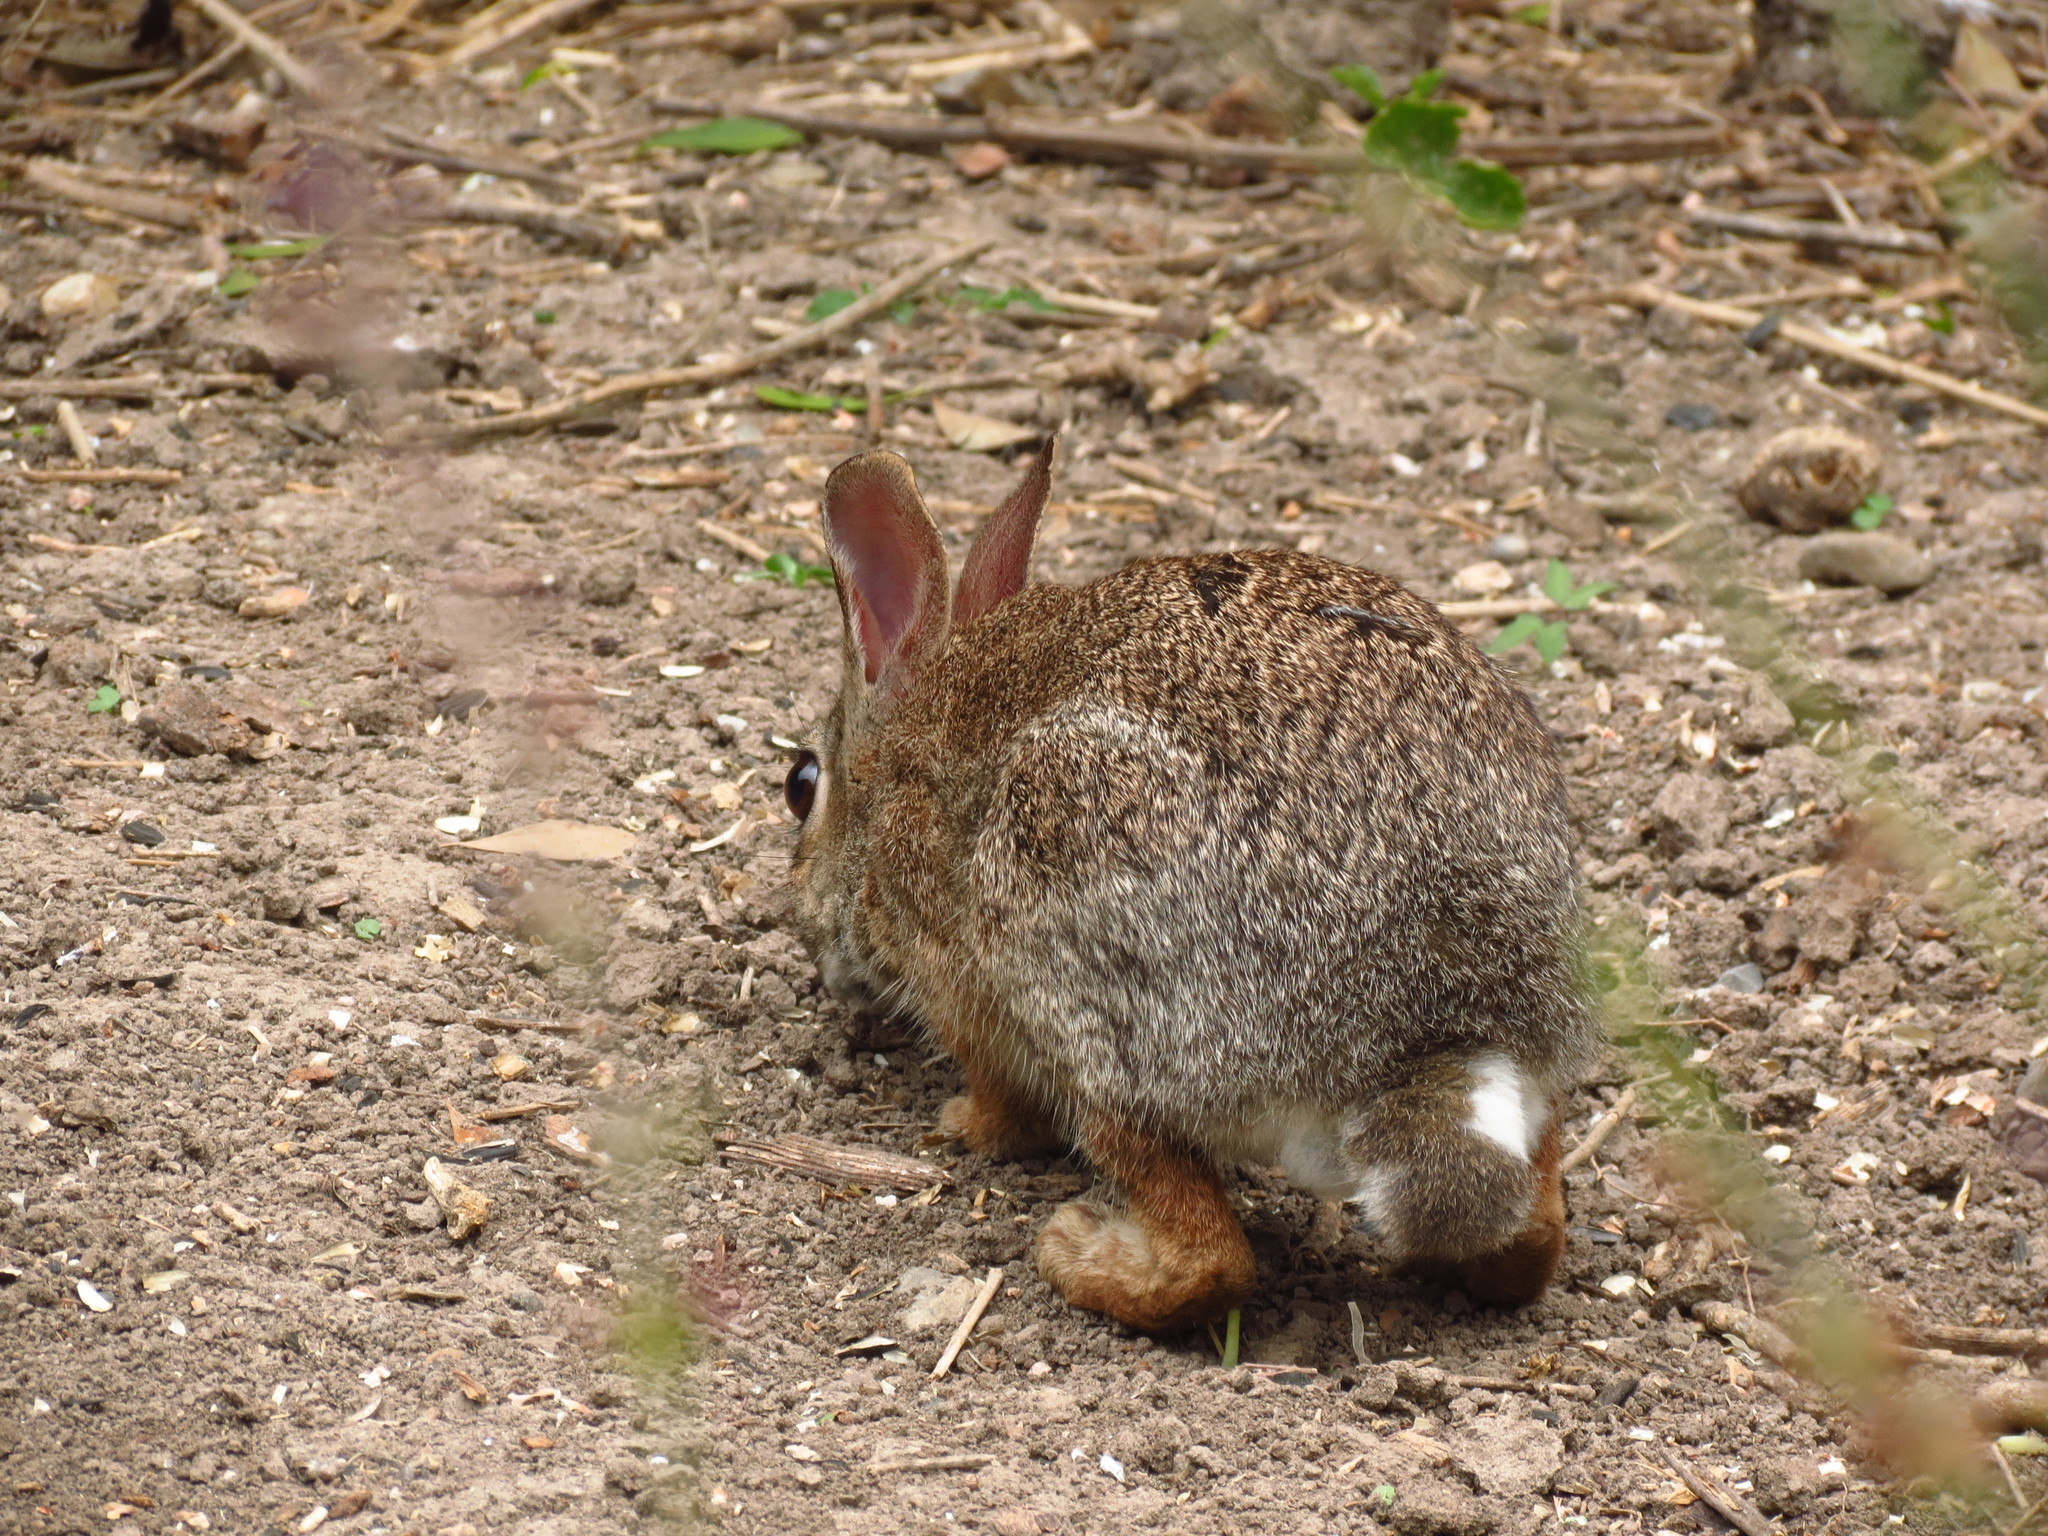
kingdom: Animalia
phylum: Chordata
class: Mammalia
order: Lagomorpha
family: Leporidae
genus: Sylvilagus
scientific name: Sylvilagus floridanus
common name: Eastern cottontail
